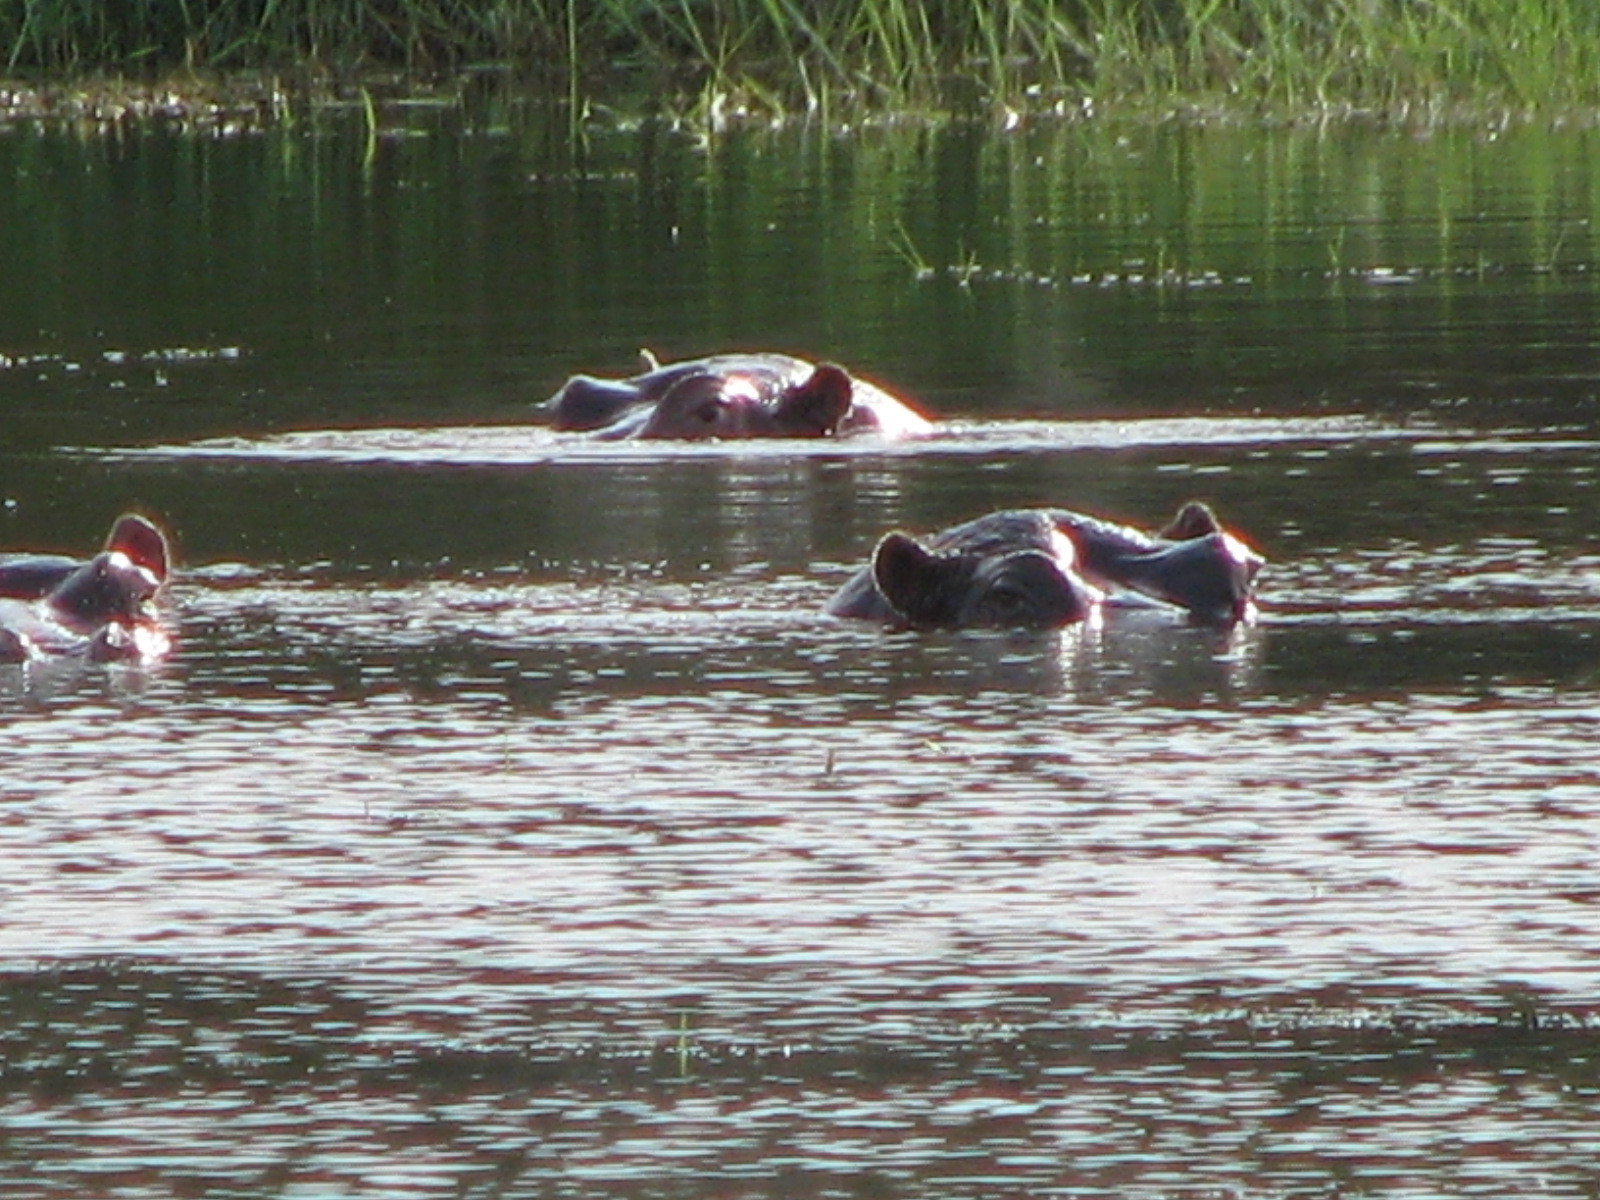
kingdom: Animalia
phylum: Chordata
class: Mammalia
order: Artiodactyla
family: Hippopotamidae
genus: Hippopotamus
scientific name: Hippopotamus amphibius
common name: Common hippopotamus
